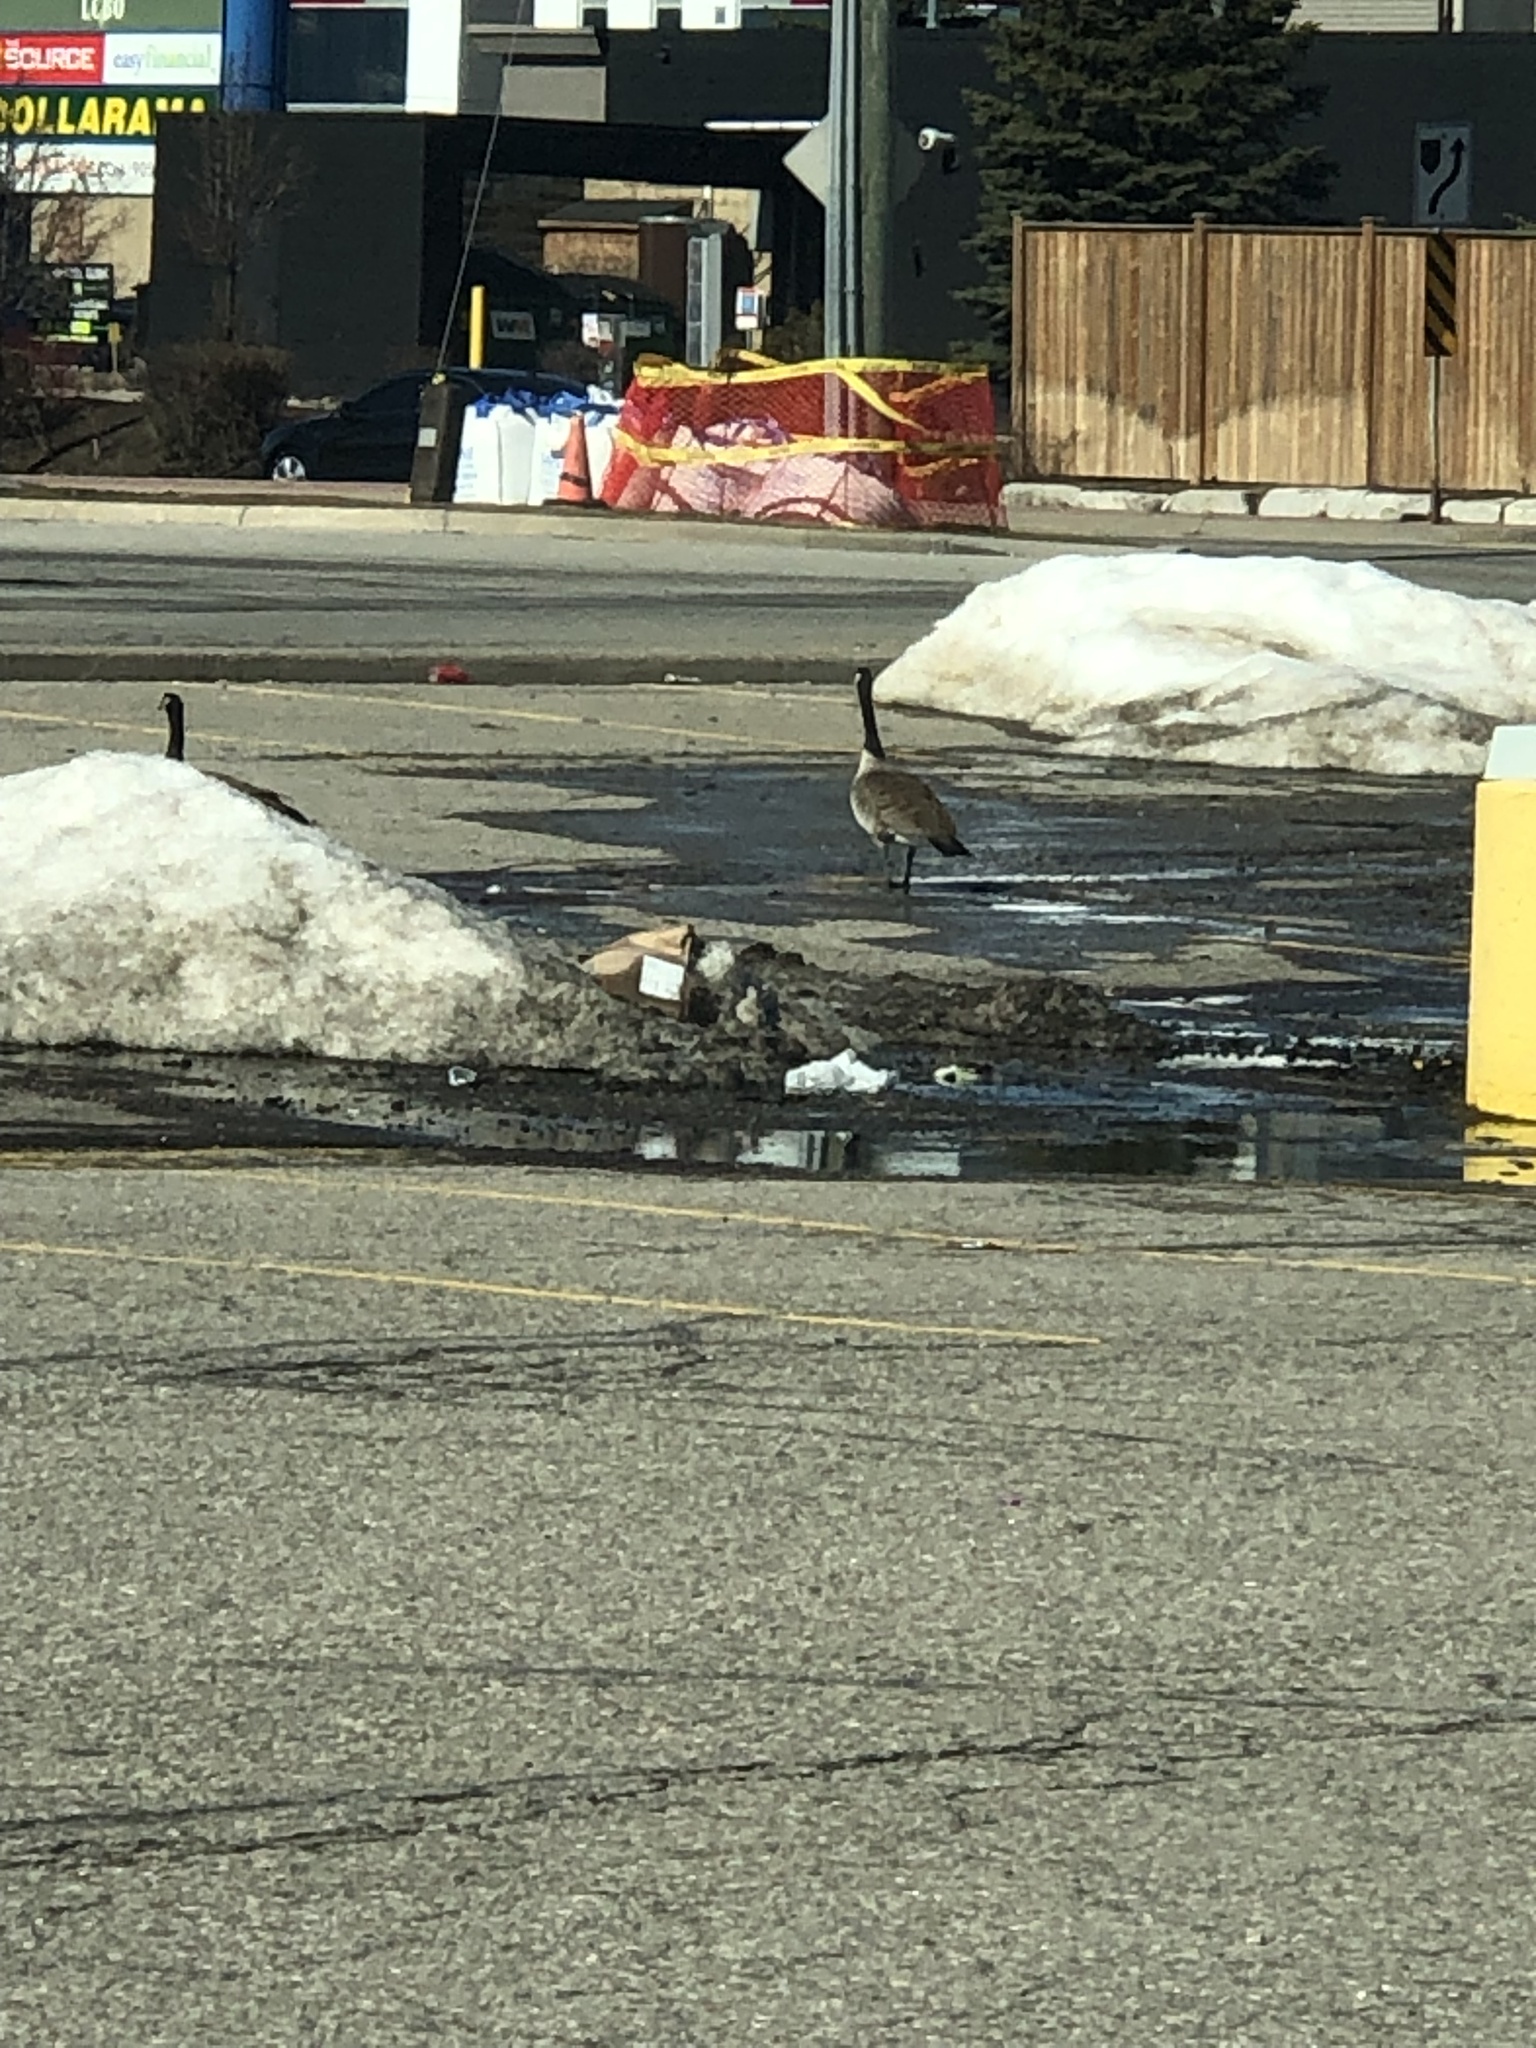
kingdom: Animalia
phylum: Chordata
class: Aves
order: Anseriformes
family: Anatidae
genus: Branta
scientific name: Branta canadensis
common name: Canada goose
